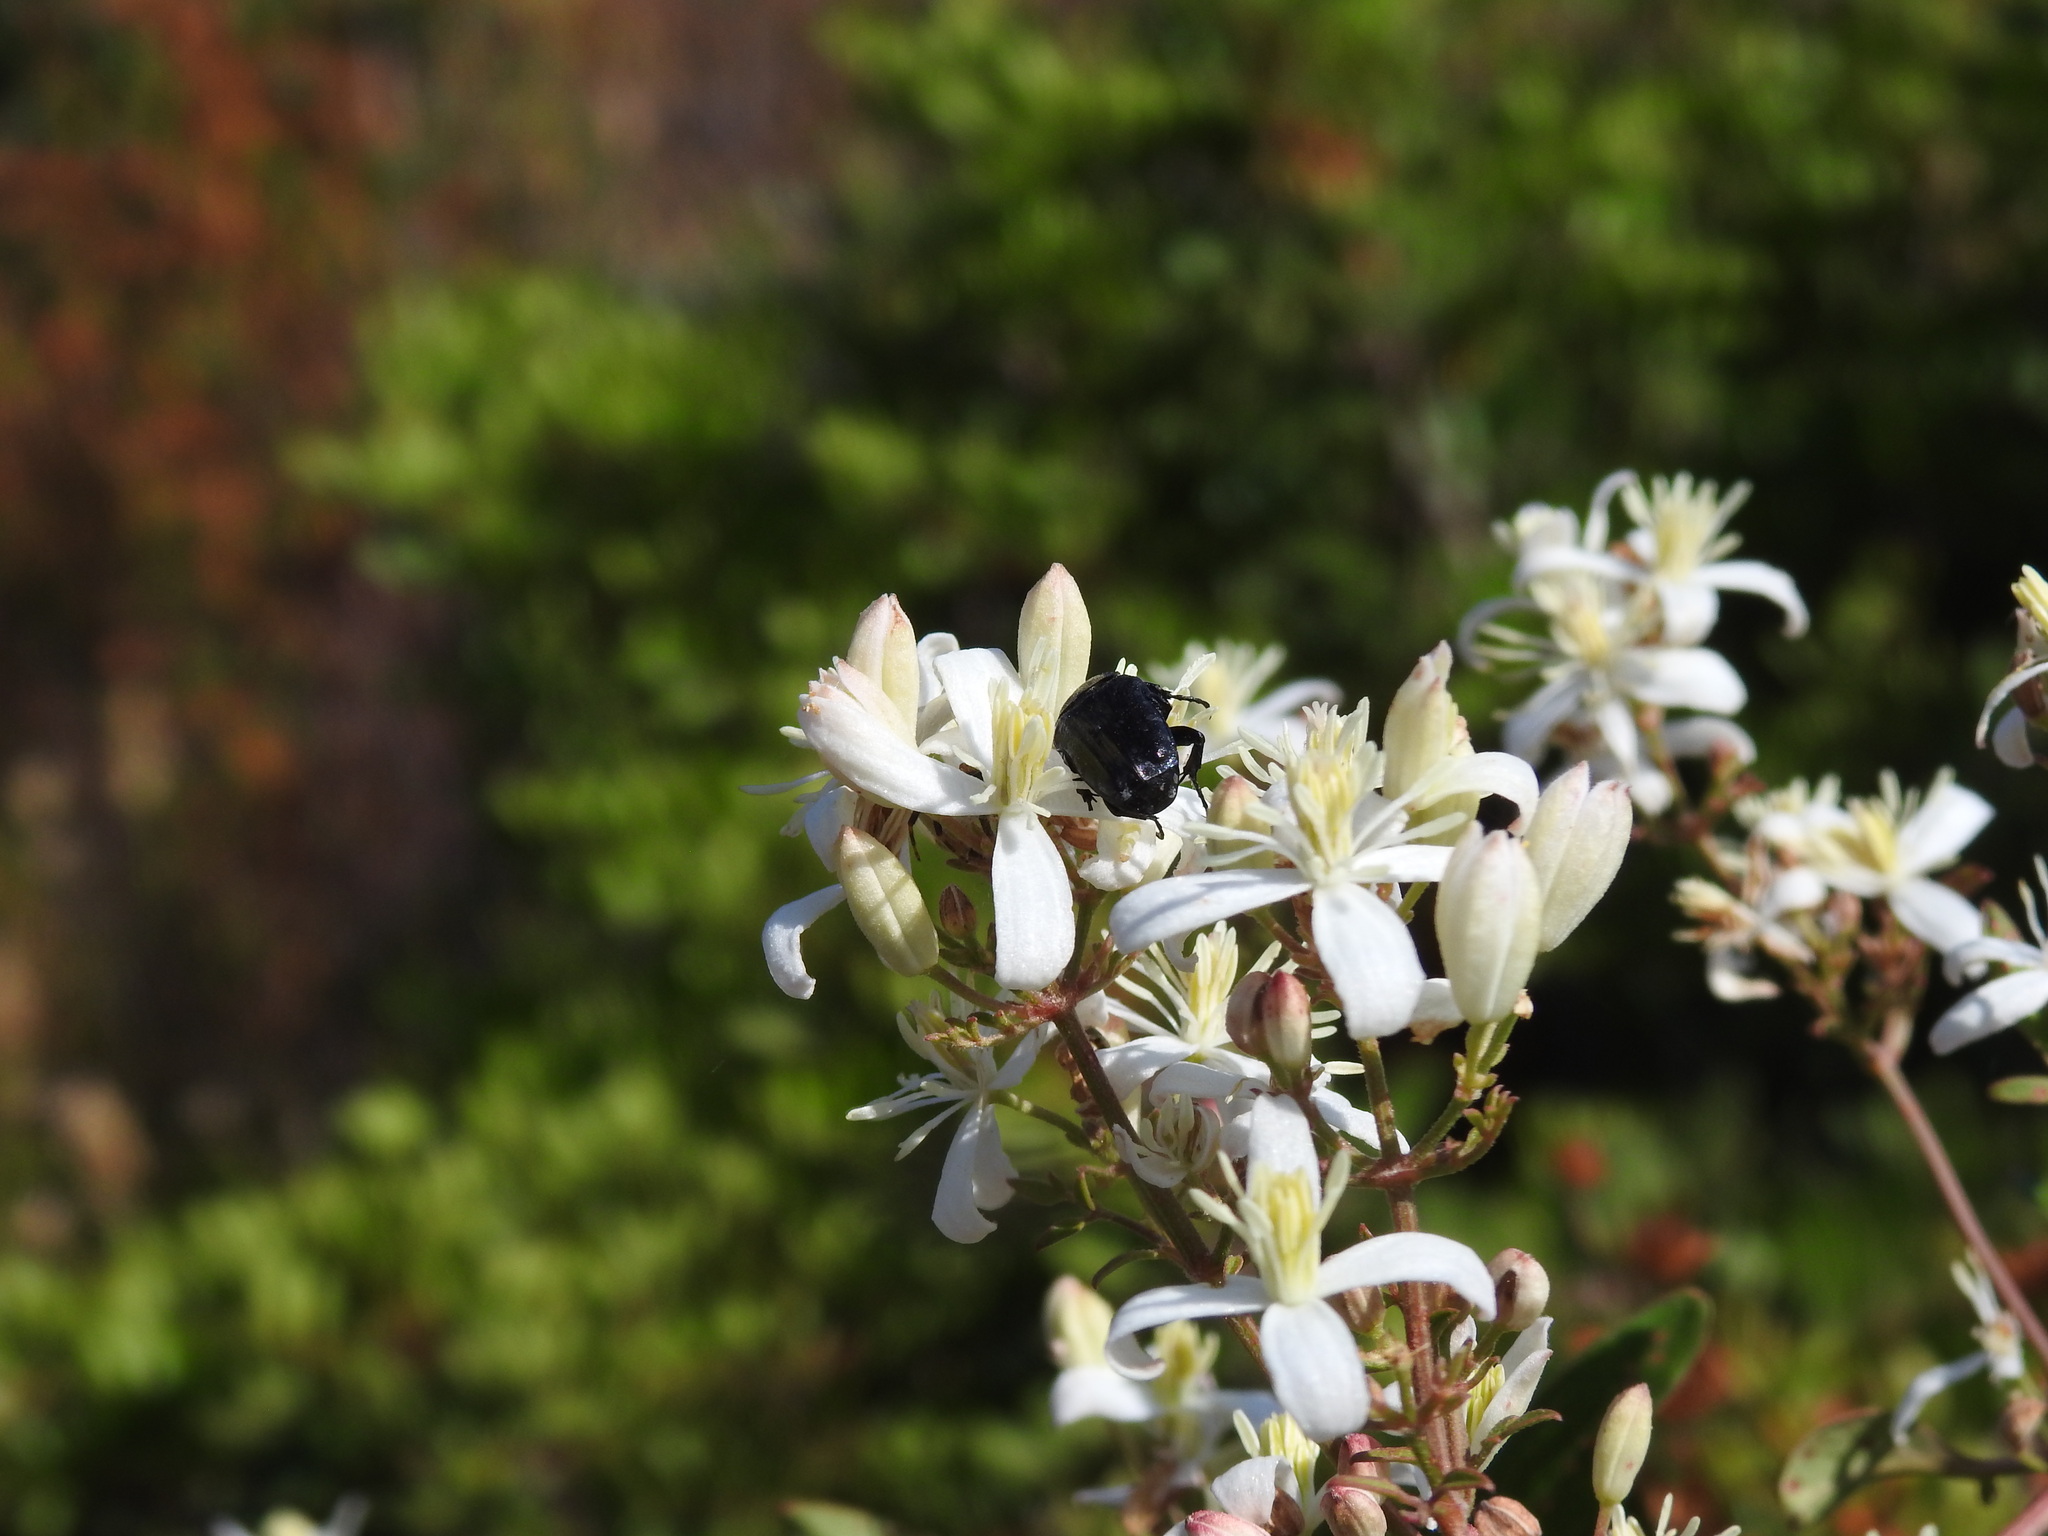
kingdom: Plantae
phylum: Tracheophyta
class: Magnoliopsida
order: Ranunculales
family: Ranunculaceae
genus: Clematis
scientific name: Clematis flammula
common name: Virgin's-bower
